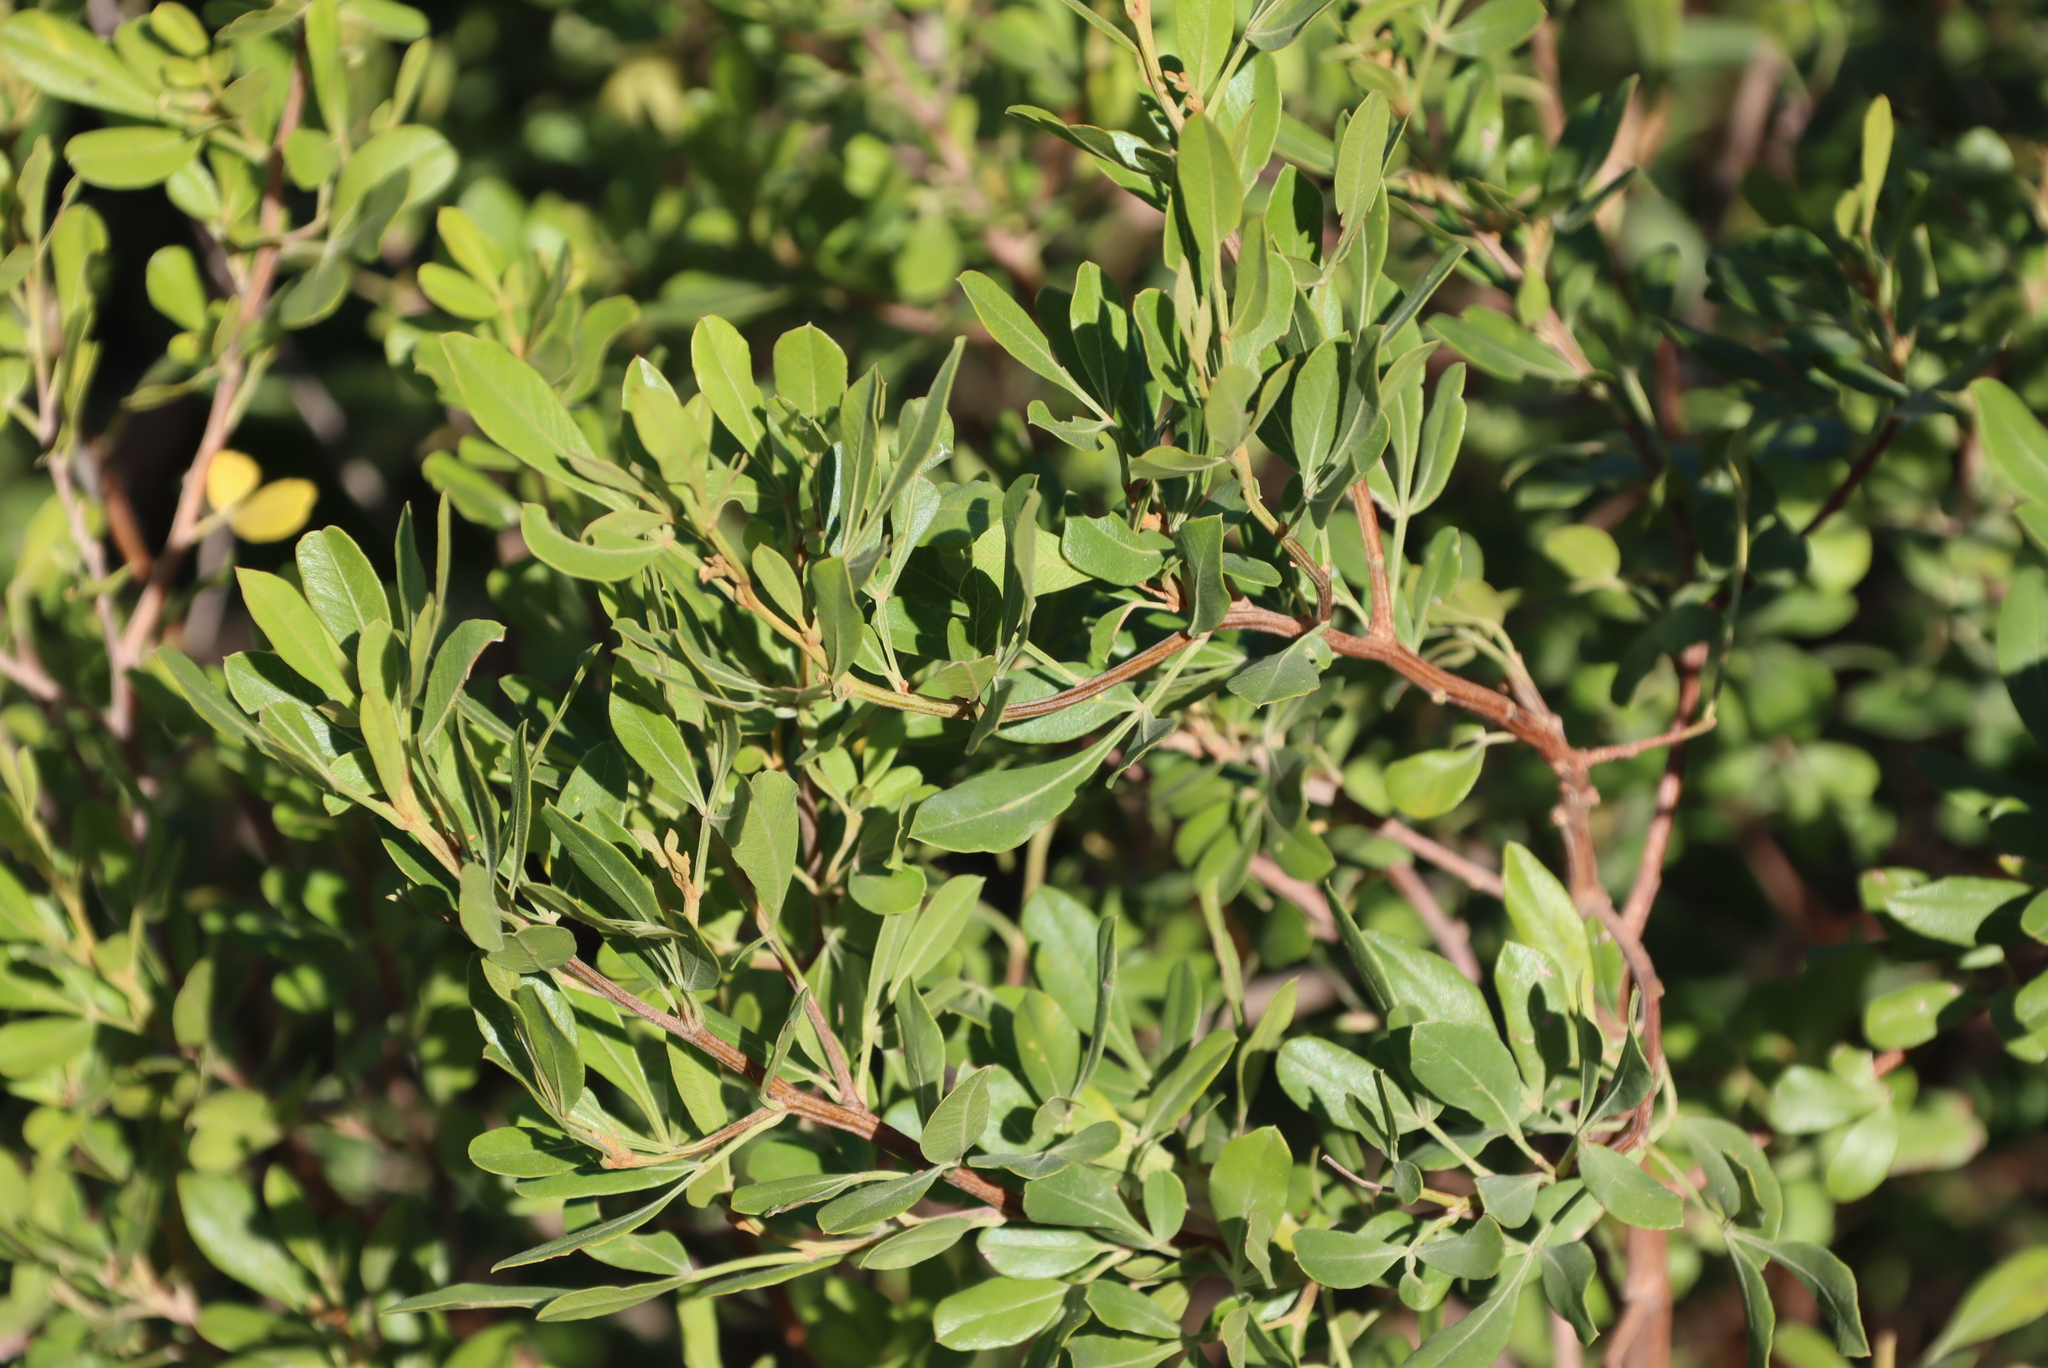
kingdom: Plantae
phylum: Tracheophyta
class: Magnoliopsida
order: Sapindales
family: Anacardiaceae
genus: Searsia
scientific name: Searsia pallens
